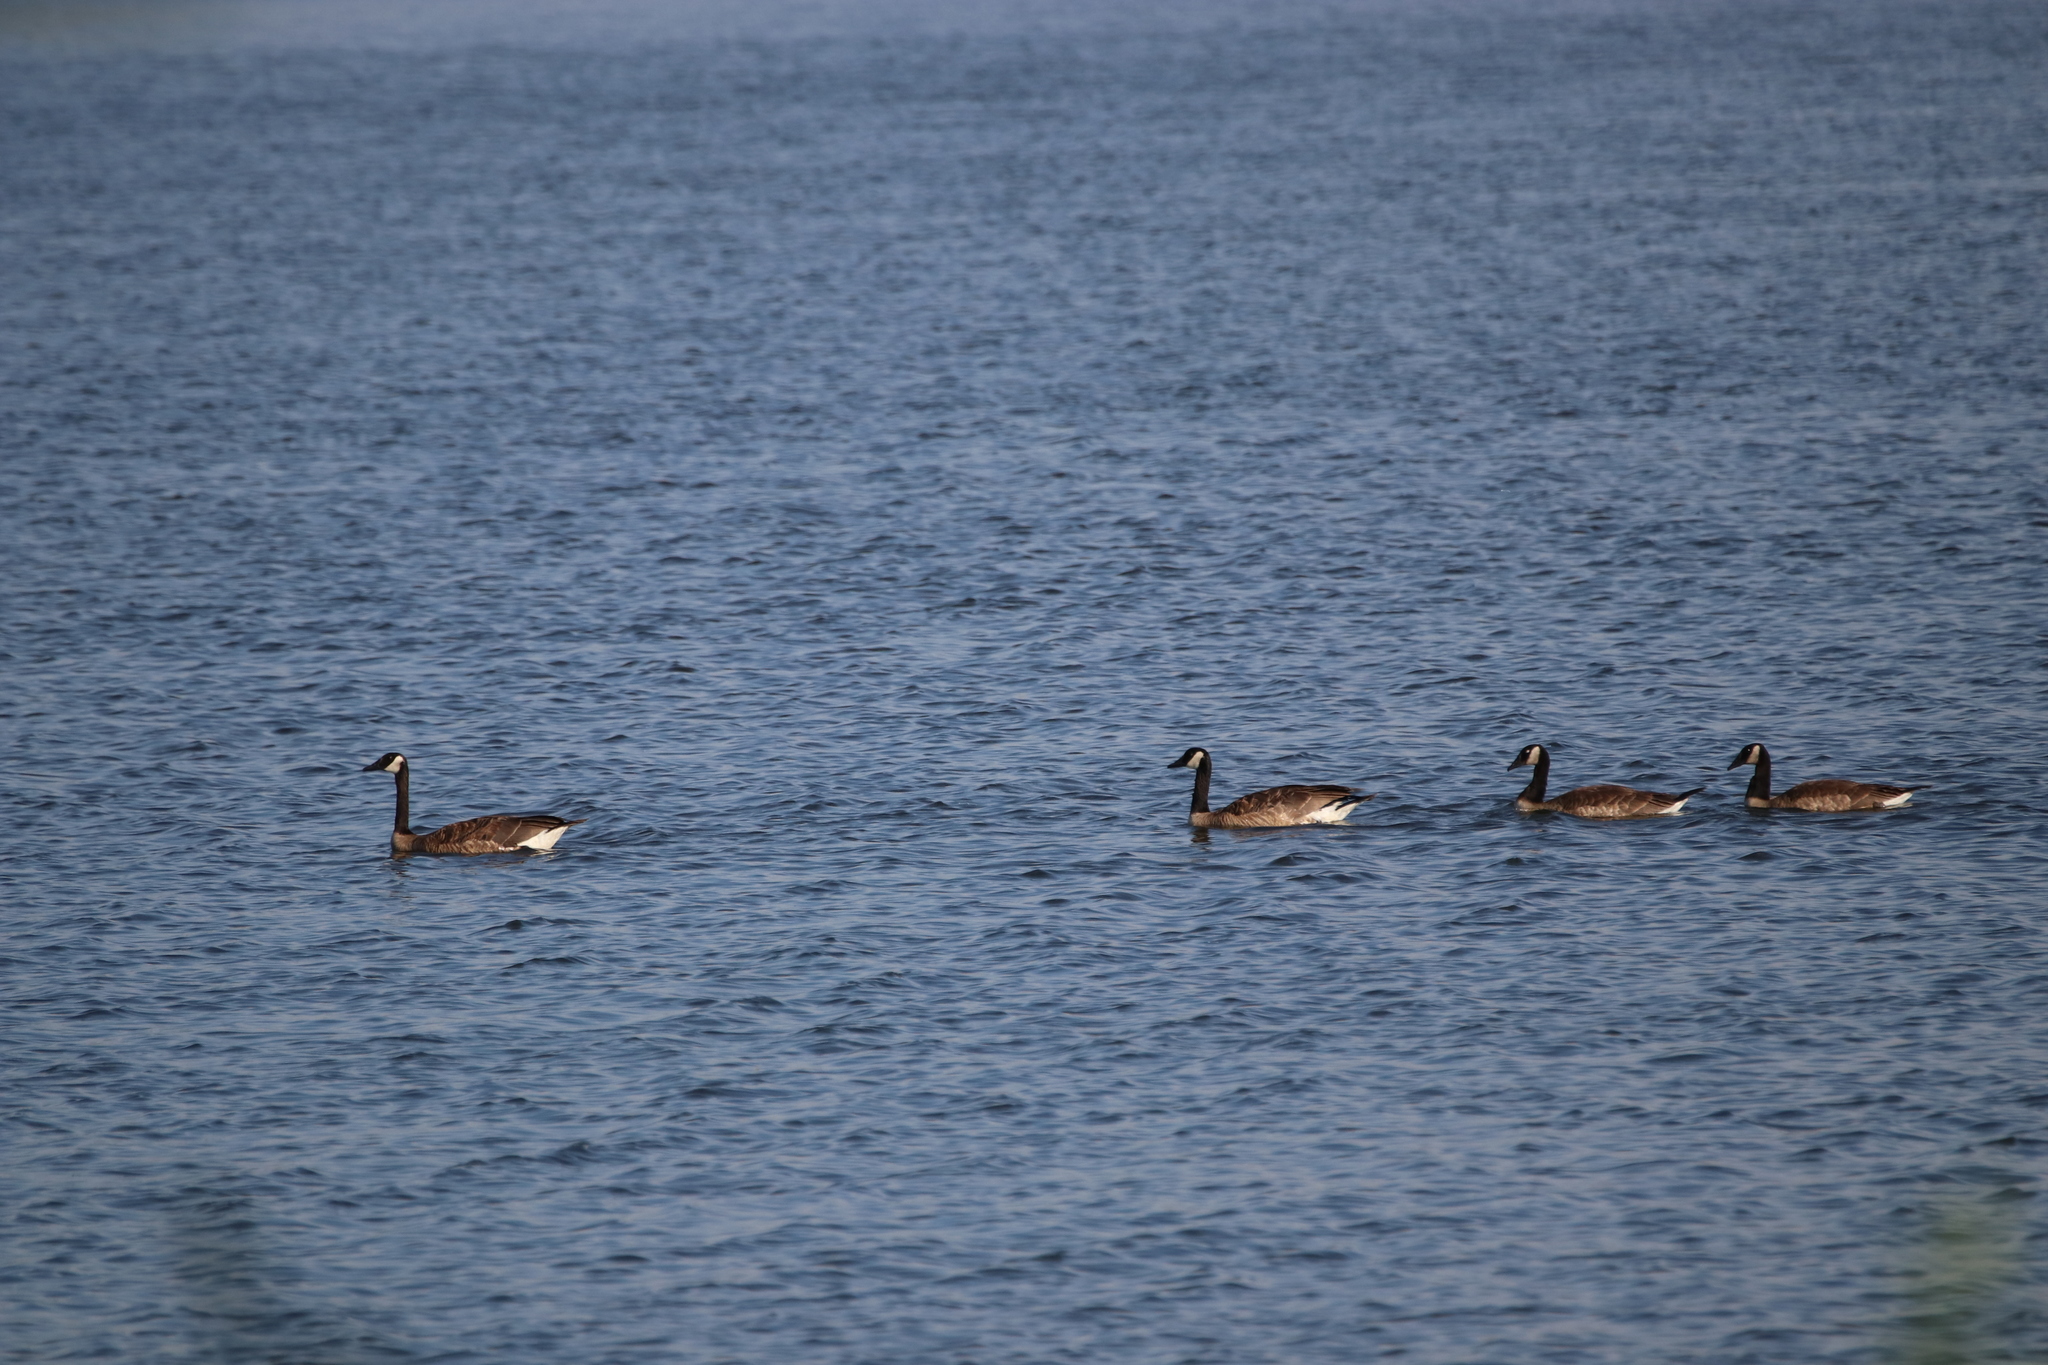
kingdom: Animalia
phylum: Chordata
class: Aves
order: Anseriformes
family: Anatidae
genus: Branta
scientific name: Branta canadensis
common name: Canada goose
